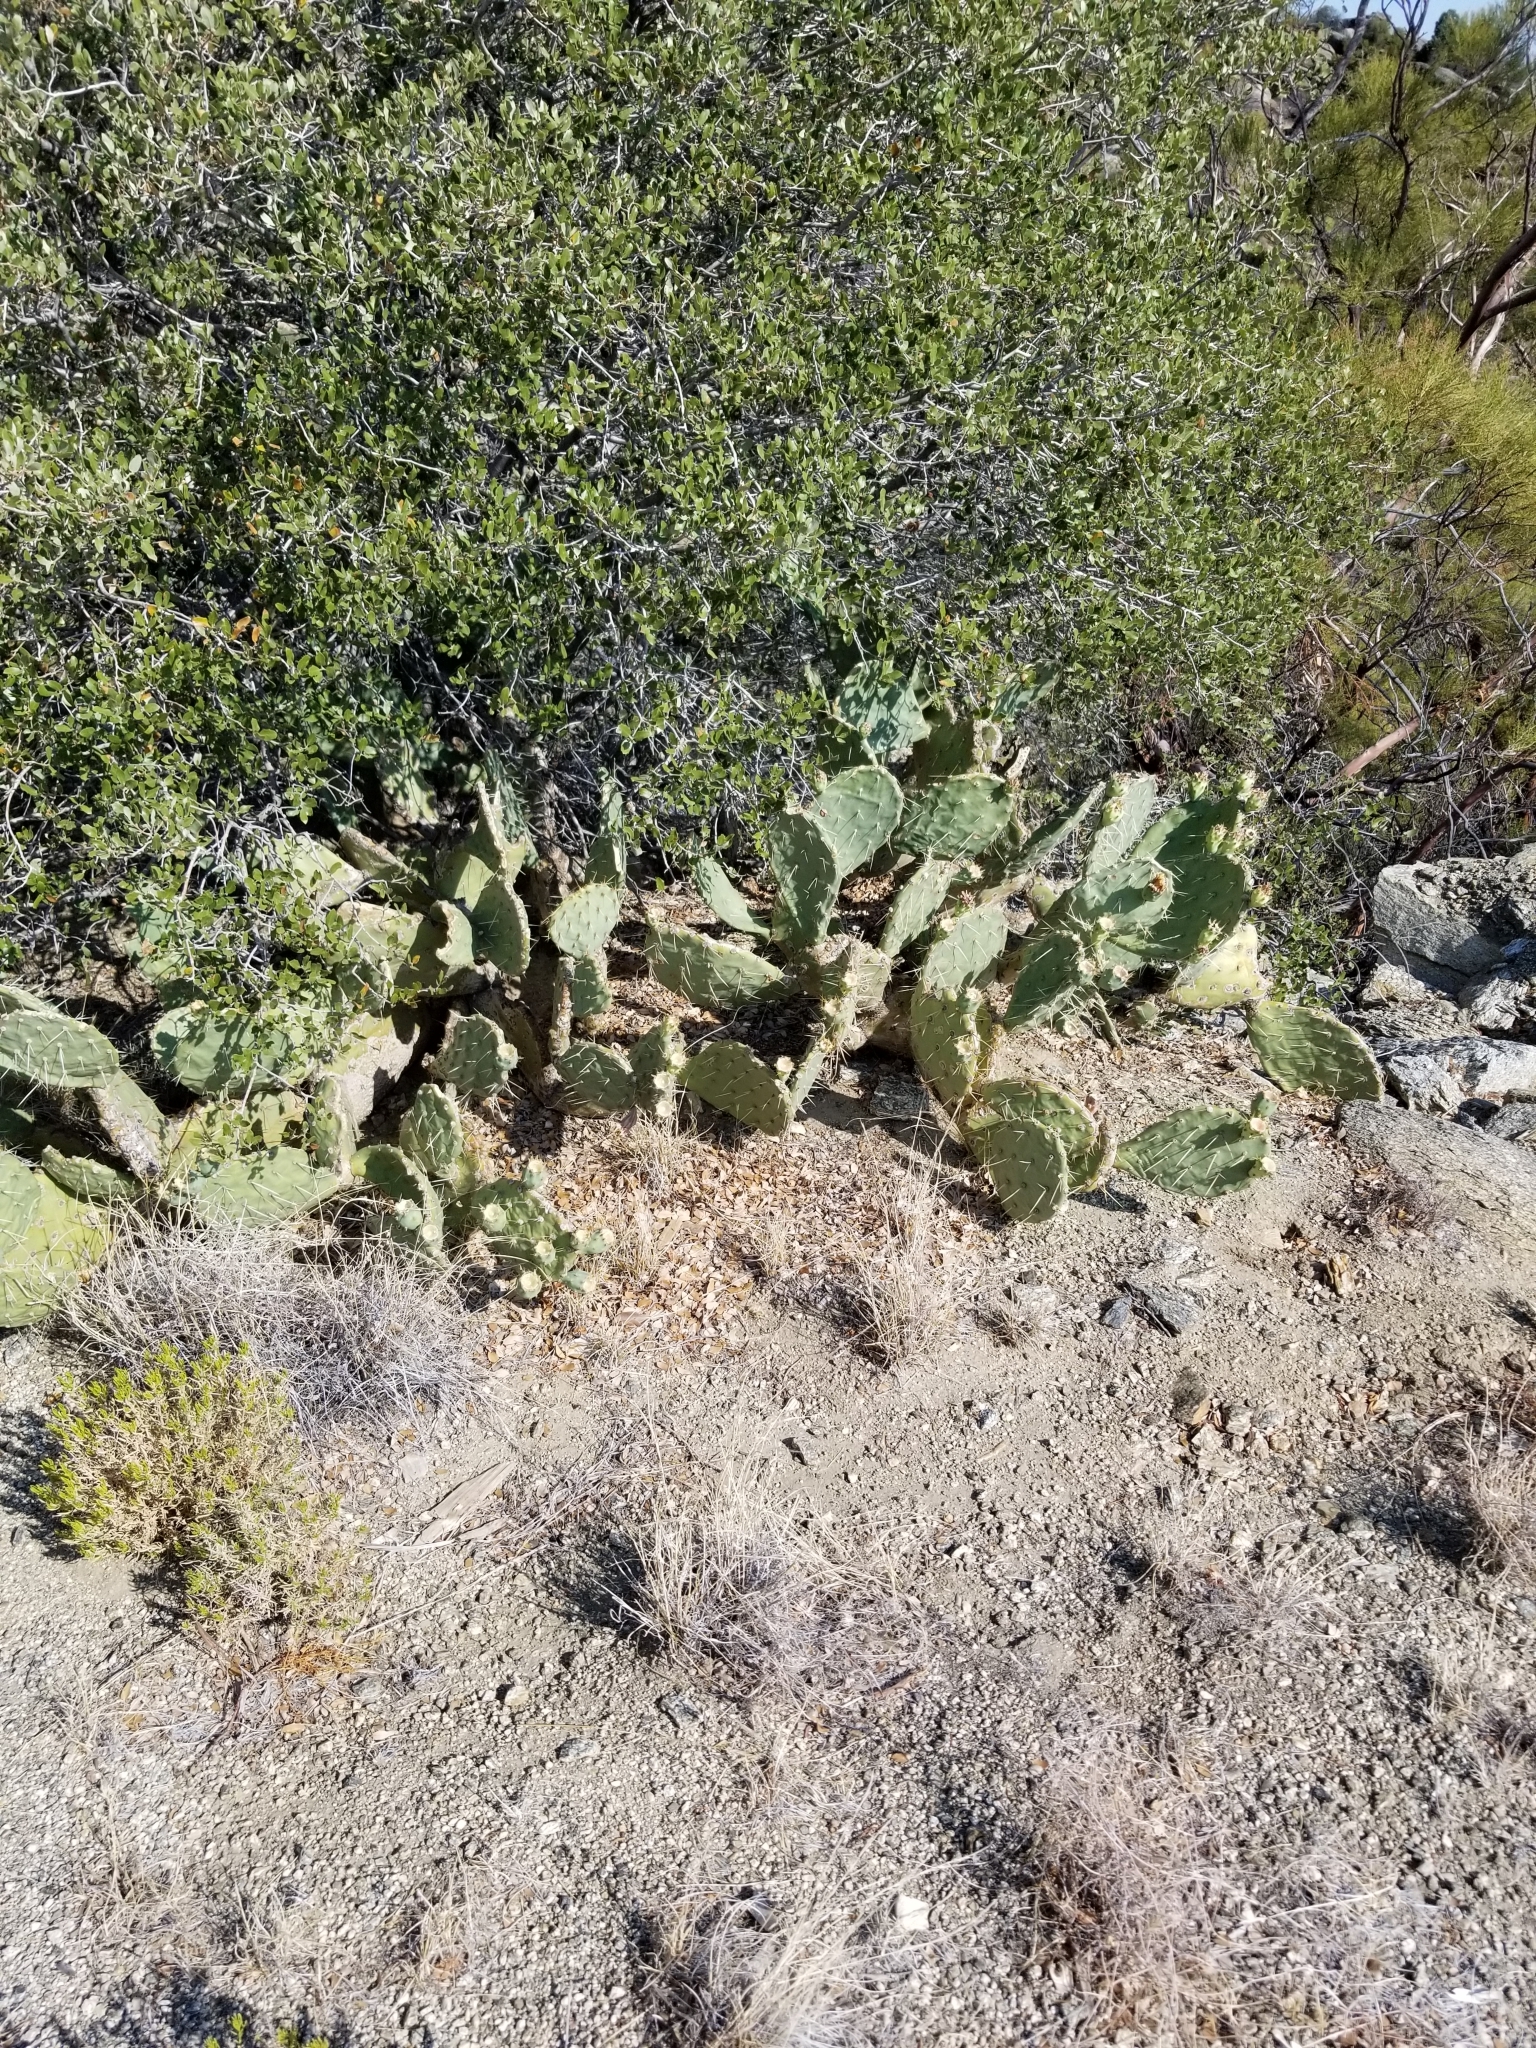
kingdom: Plantae
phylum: Tracheophyta
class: Magnoliopsida
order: Caryophyllales
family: Cactaceae
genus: Opuntia
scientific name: Opuntia phaeacantha
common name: New mexico prickly-pear
